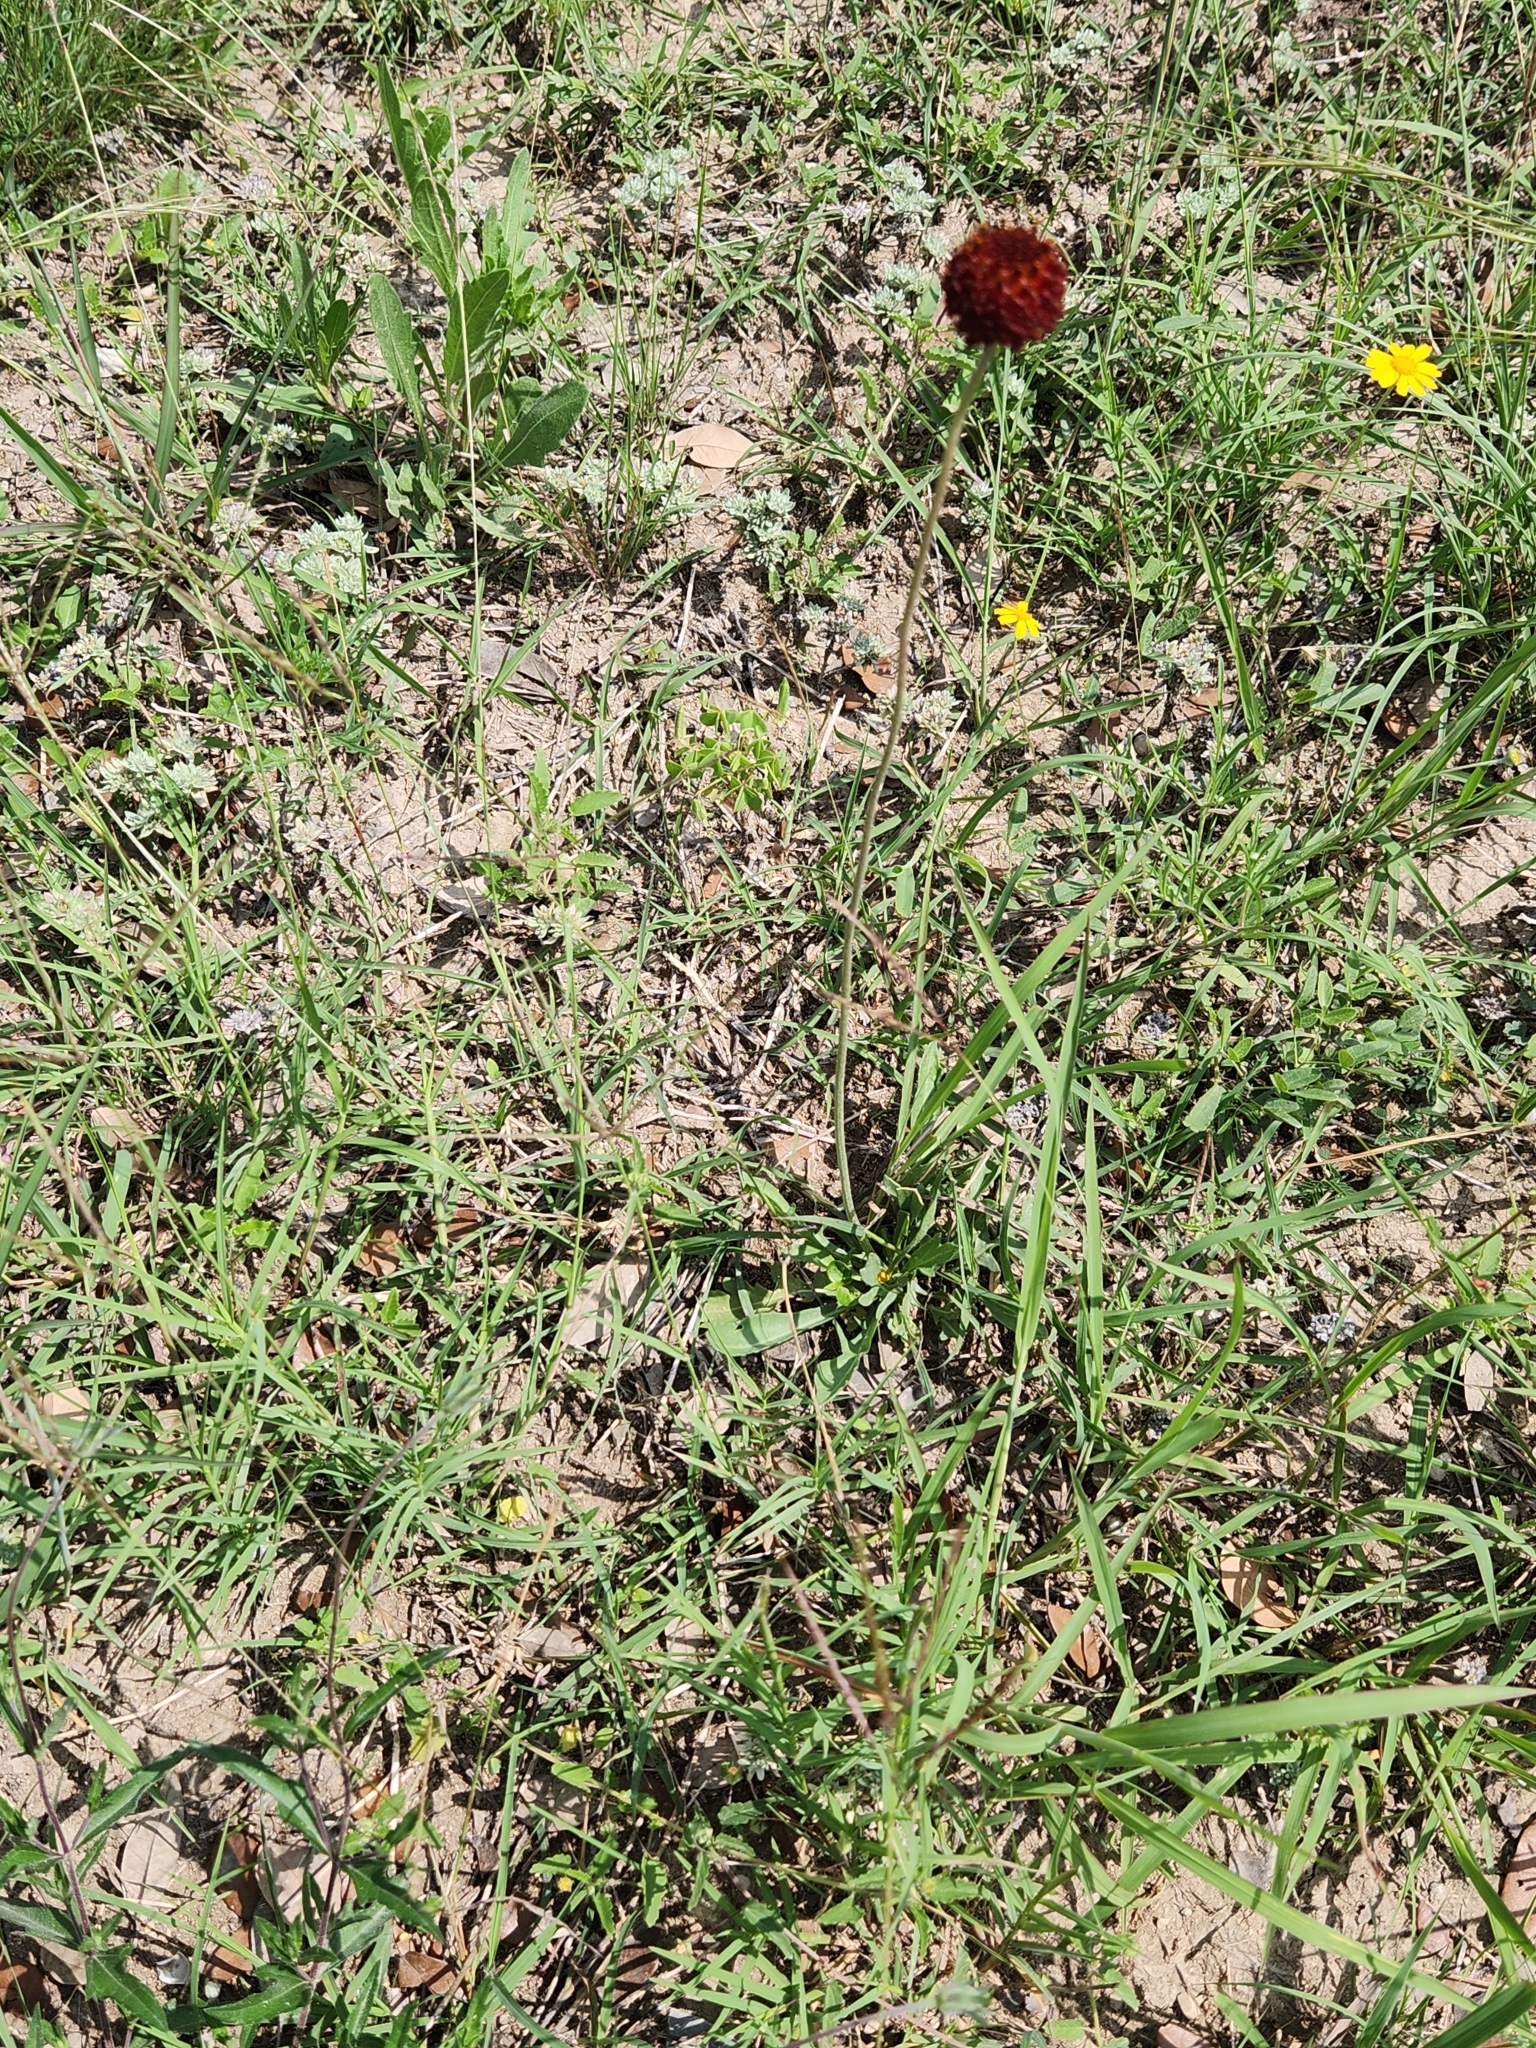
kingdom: Plantae
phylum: Tracheophyta
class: Magnoliopsida
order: Asterales
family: Asteraceae
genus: Gaillardia
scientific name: Gaillardia suavis
